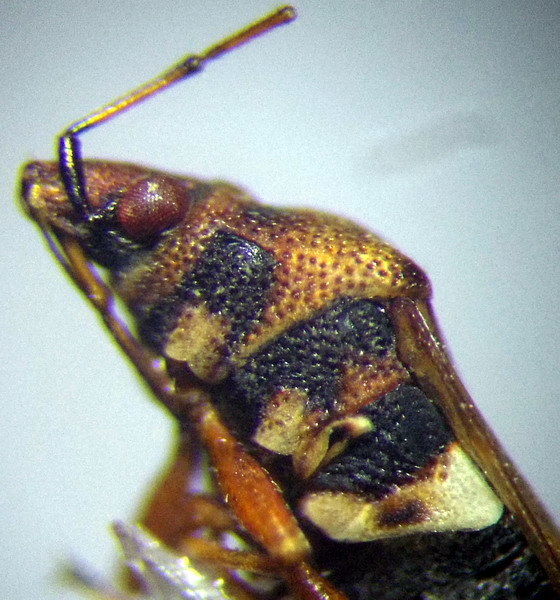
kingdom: Animalia
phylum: Arthropoda
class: Insecta
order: Hemiptera
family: Lygaeidae
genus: Kleidocerys
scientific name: Kleidocerys resedae
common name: Birch catkin bug
